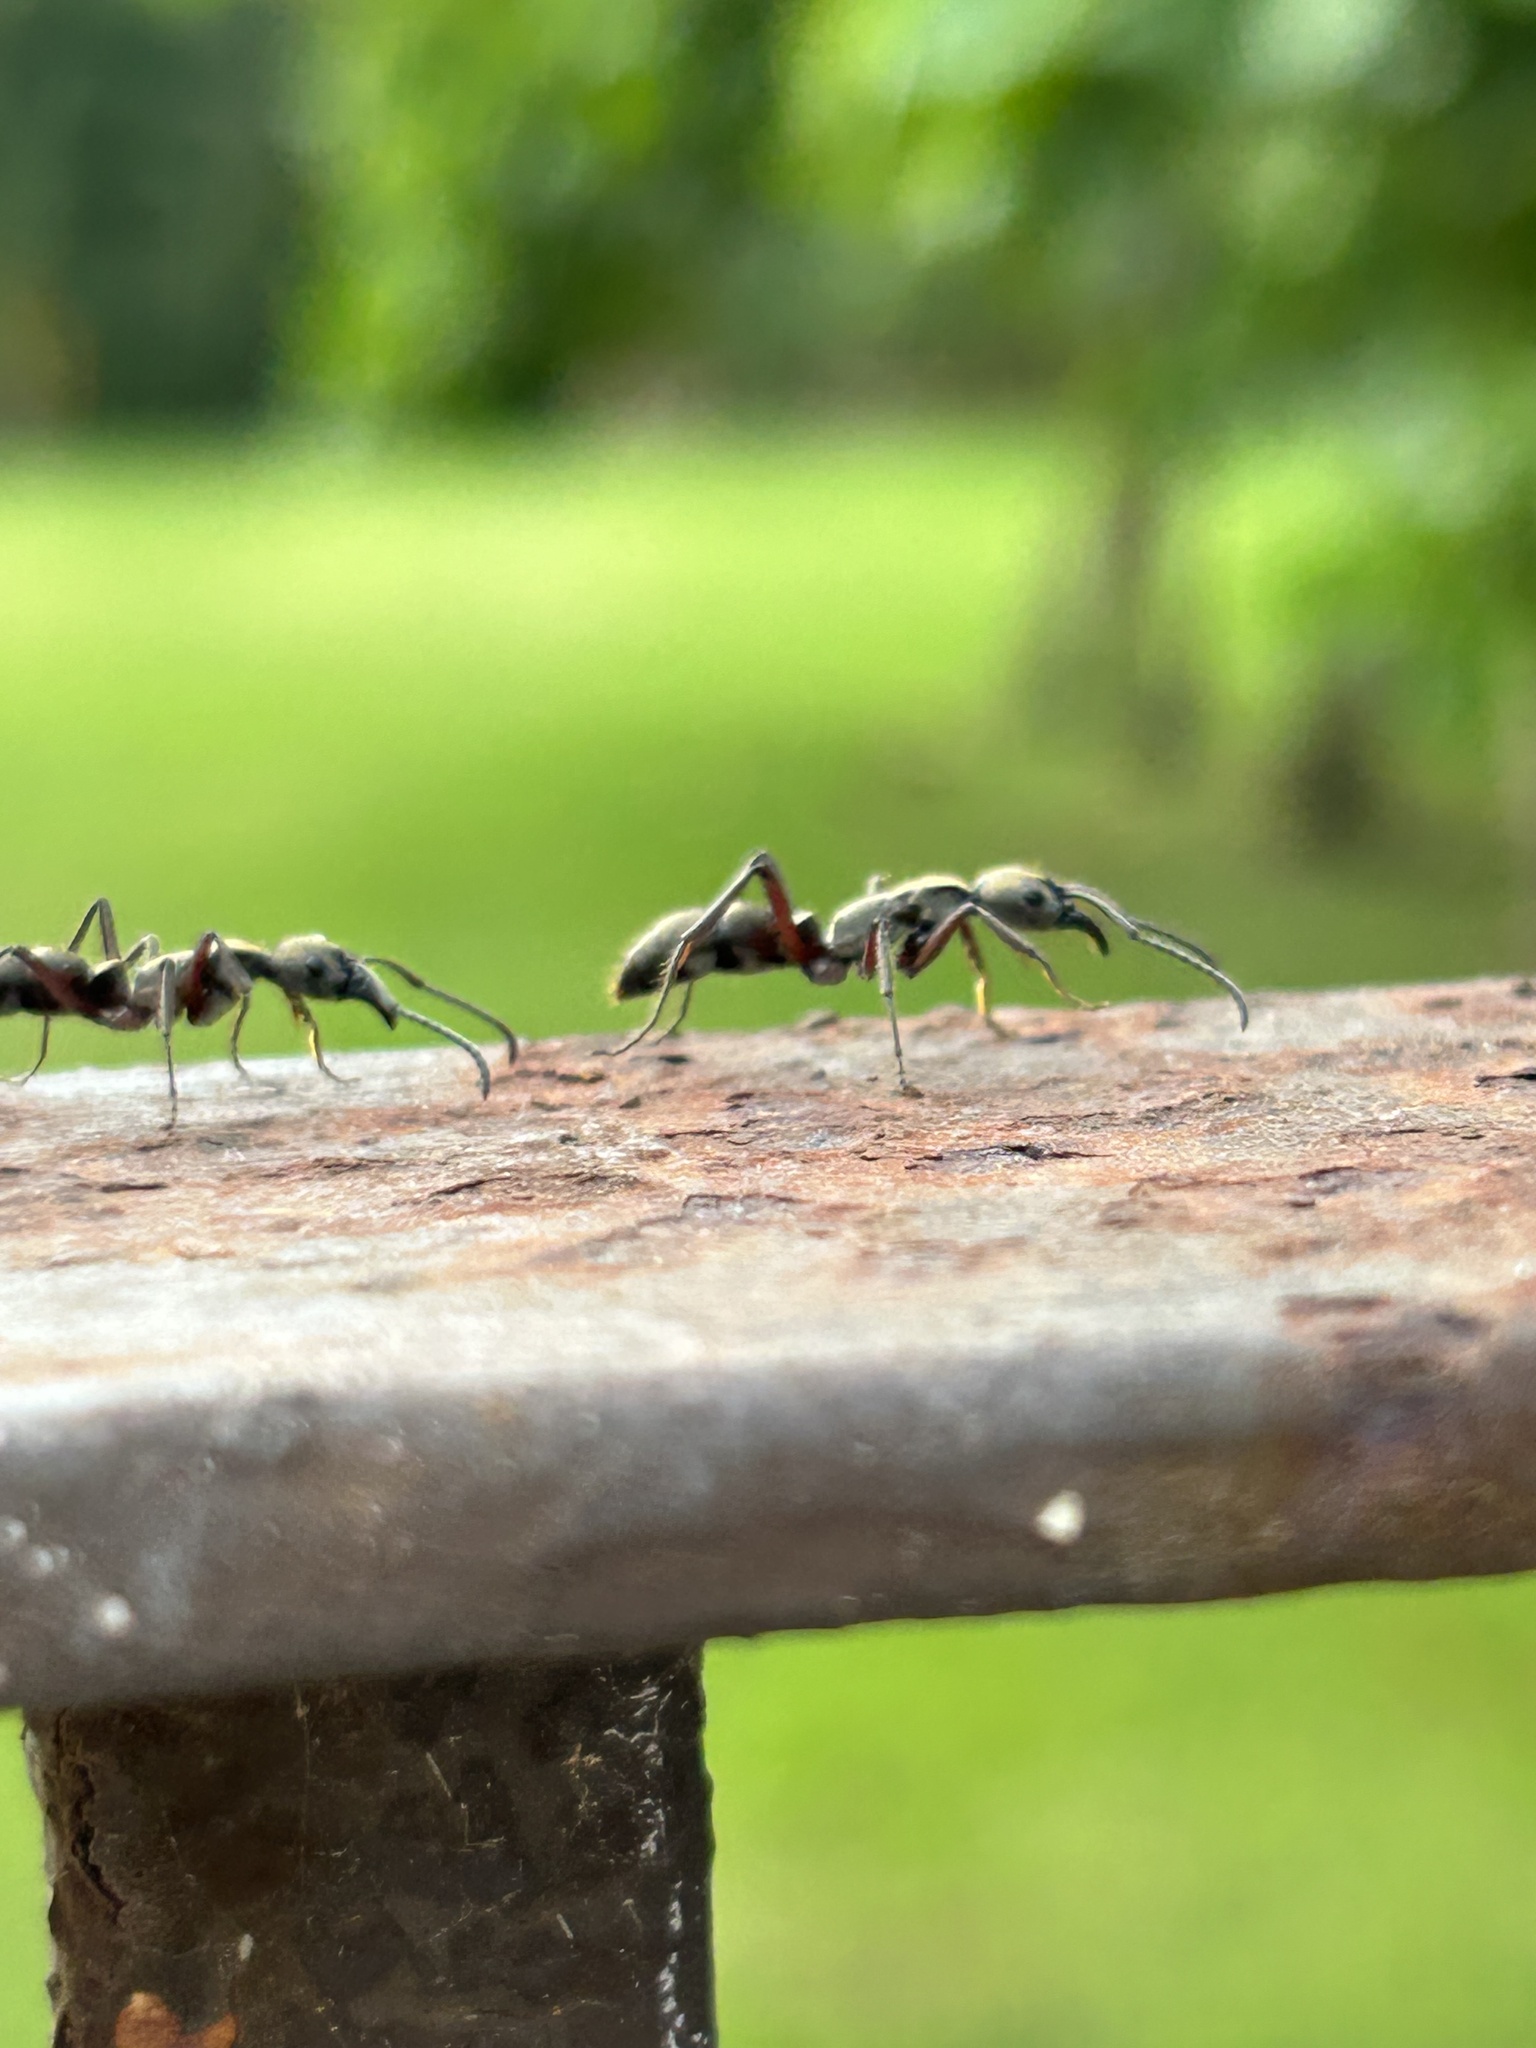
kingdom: Animalia
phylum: Arthropoda
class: Insecta
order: Hymenoptera
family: Formicidae
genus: Pachycondyla
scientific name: Pachycondyla villosa
